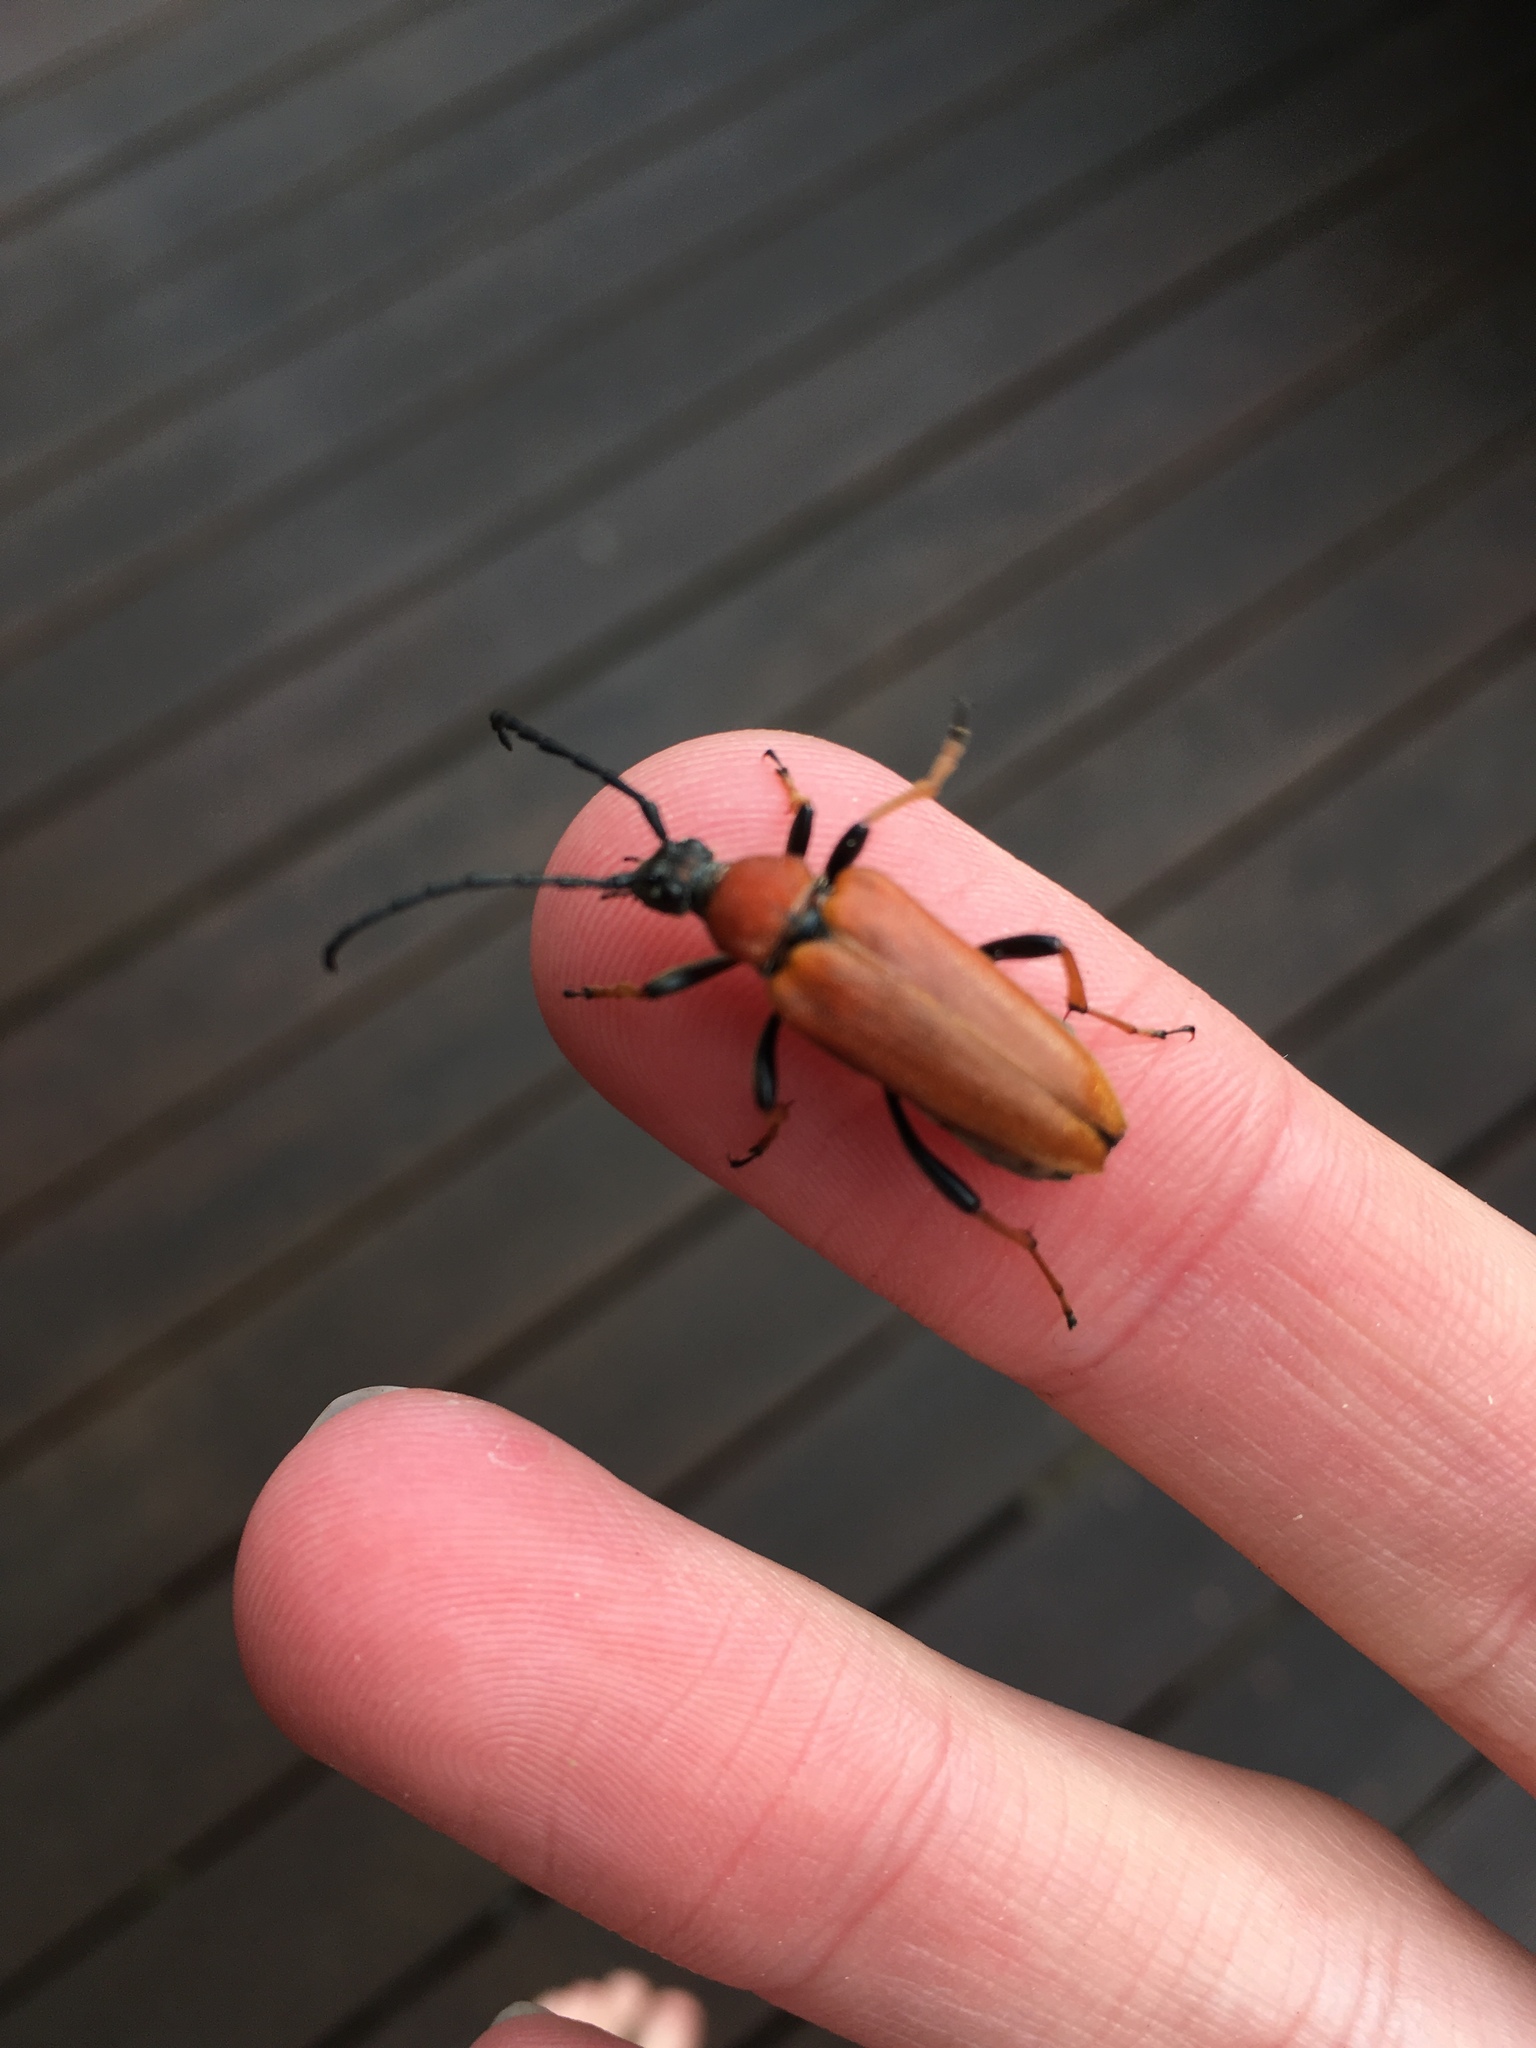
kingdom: Animalia
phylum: Arthropoda
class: Insecta
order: Coleoptera
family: Cerambycidae
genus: Stictoleptura
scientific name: Stictoleptura rubra
